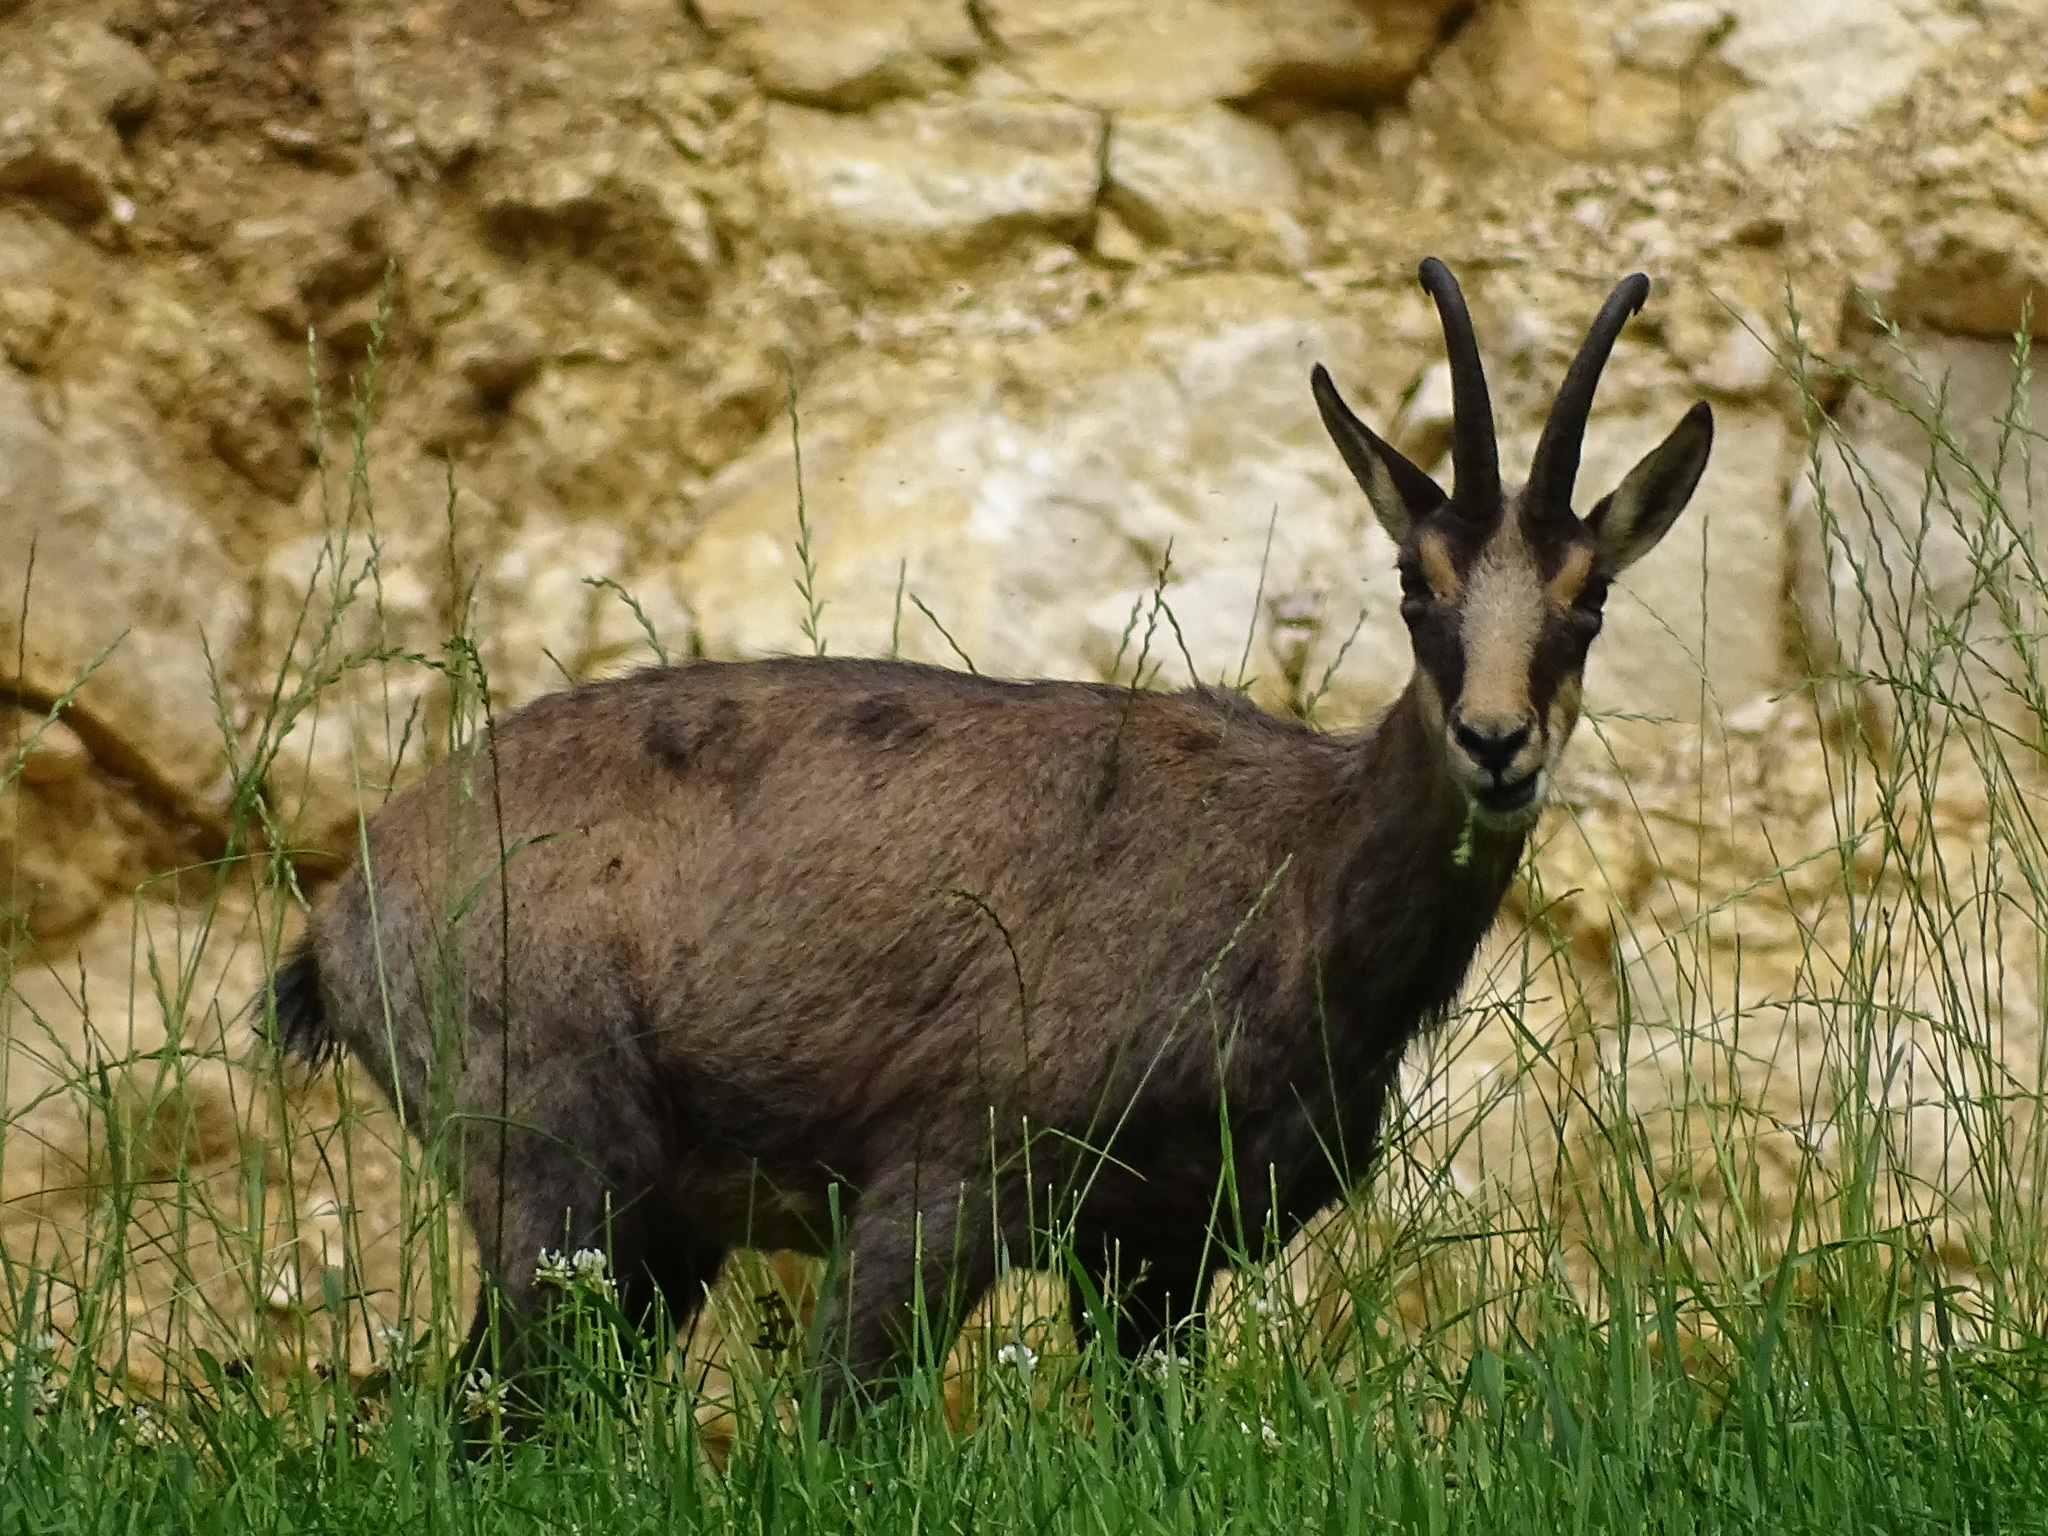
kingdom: Animalia
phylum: Chordata
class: Mammalia
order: Artiodactyla
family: Bovidae
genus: Rupicapra
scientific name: Rupicapra rupicapra
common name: Chamois
